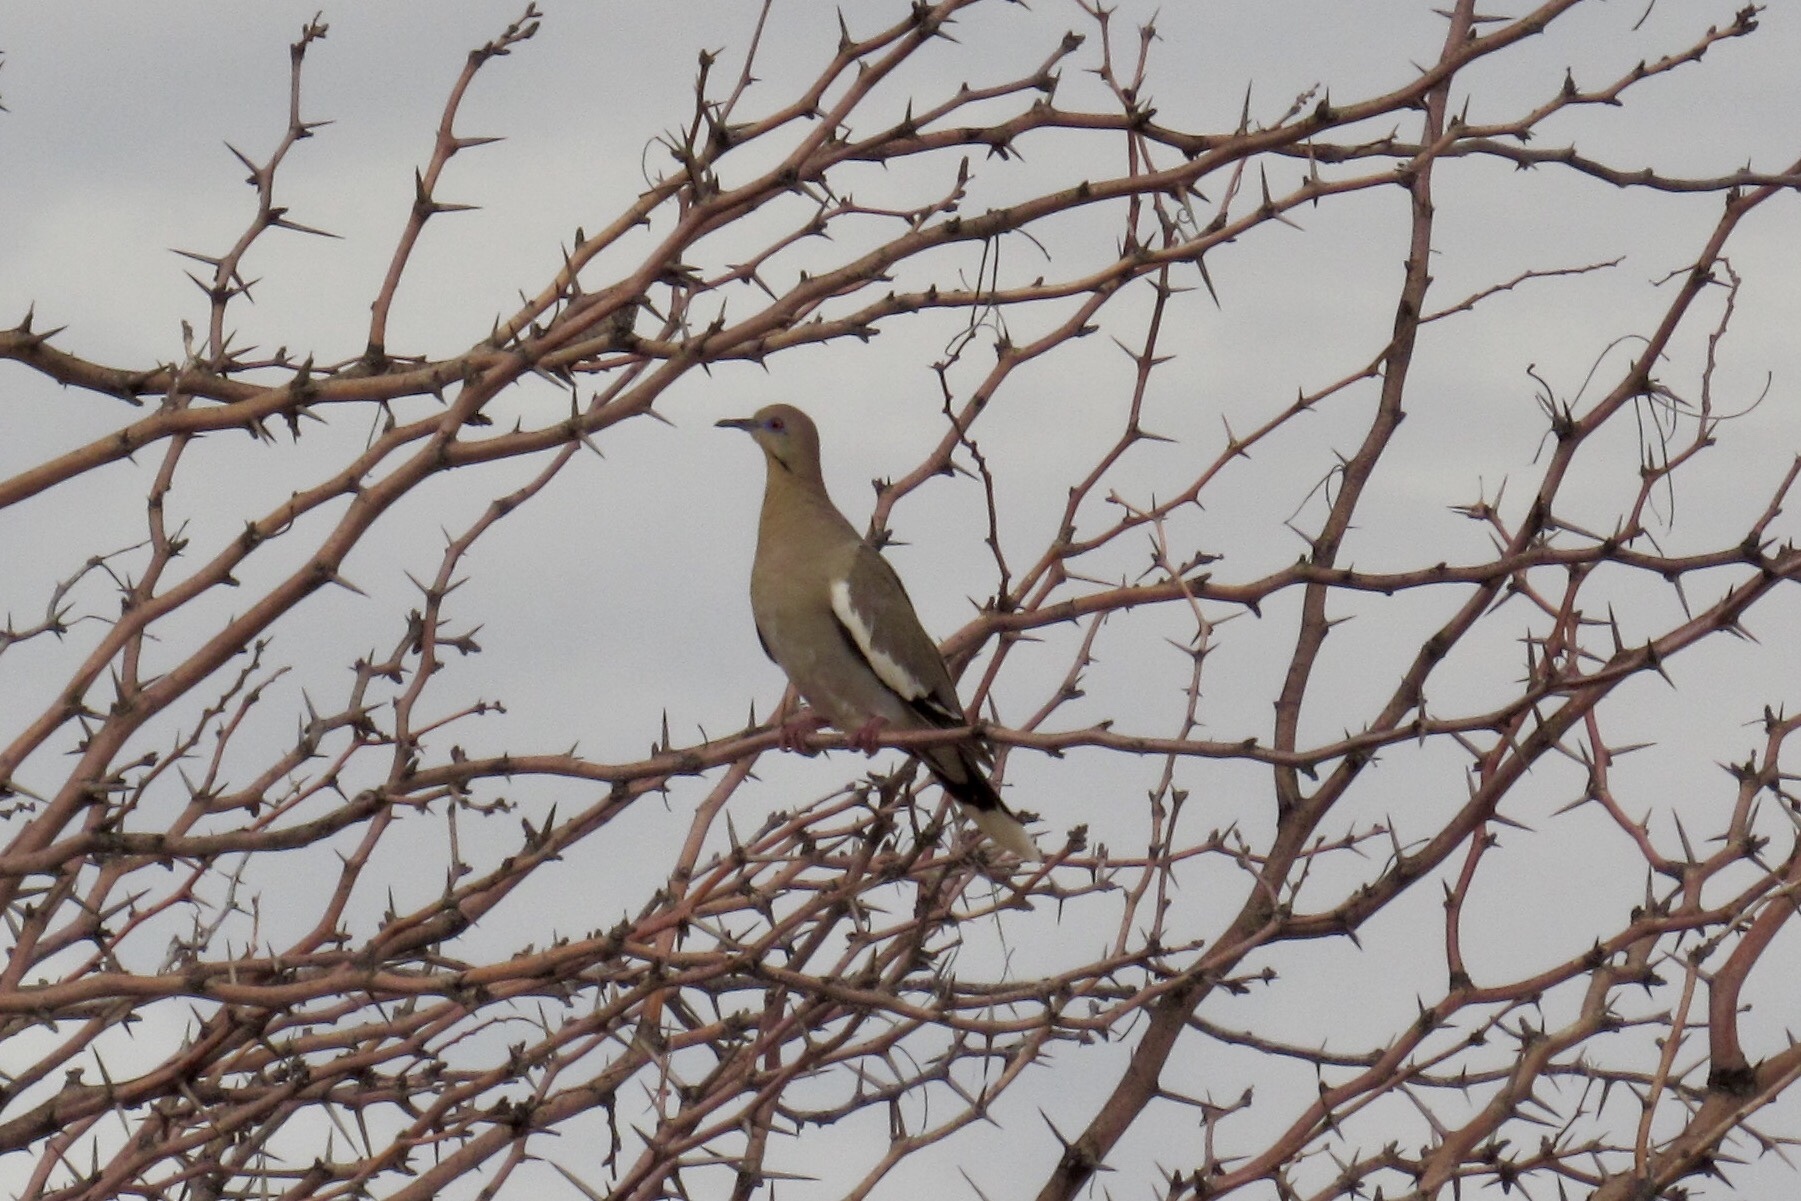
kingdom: Animalia
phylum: Chordata
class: Aves
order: Columbiformes
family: Columbidae
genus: Zenaida
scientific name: Zenaida asiatica
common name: White-winged dove
